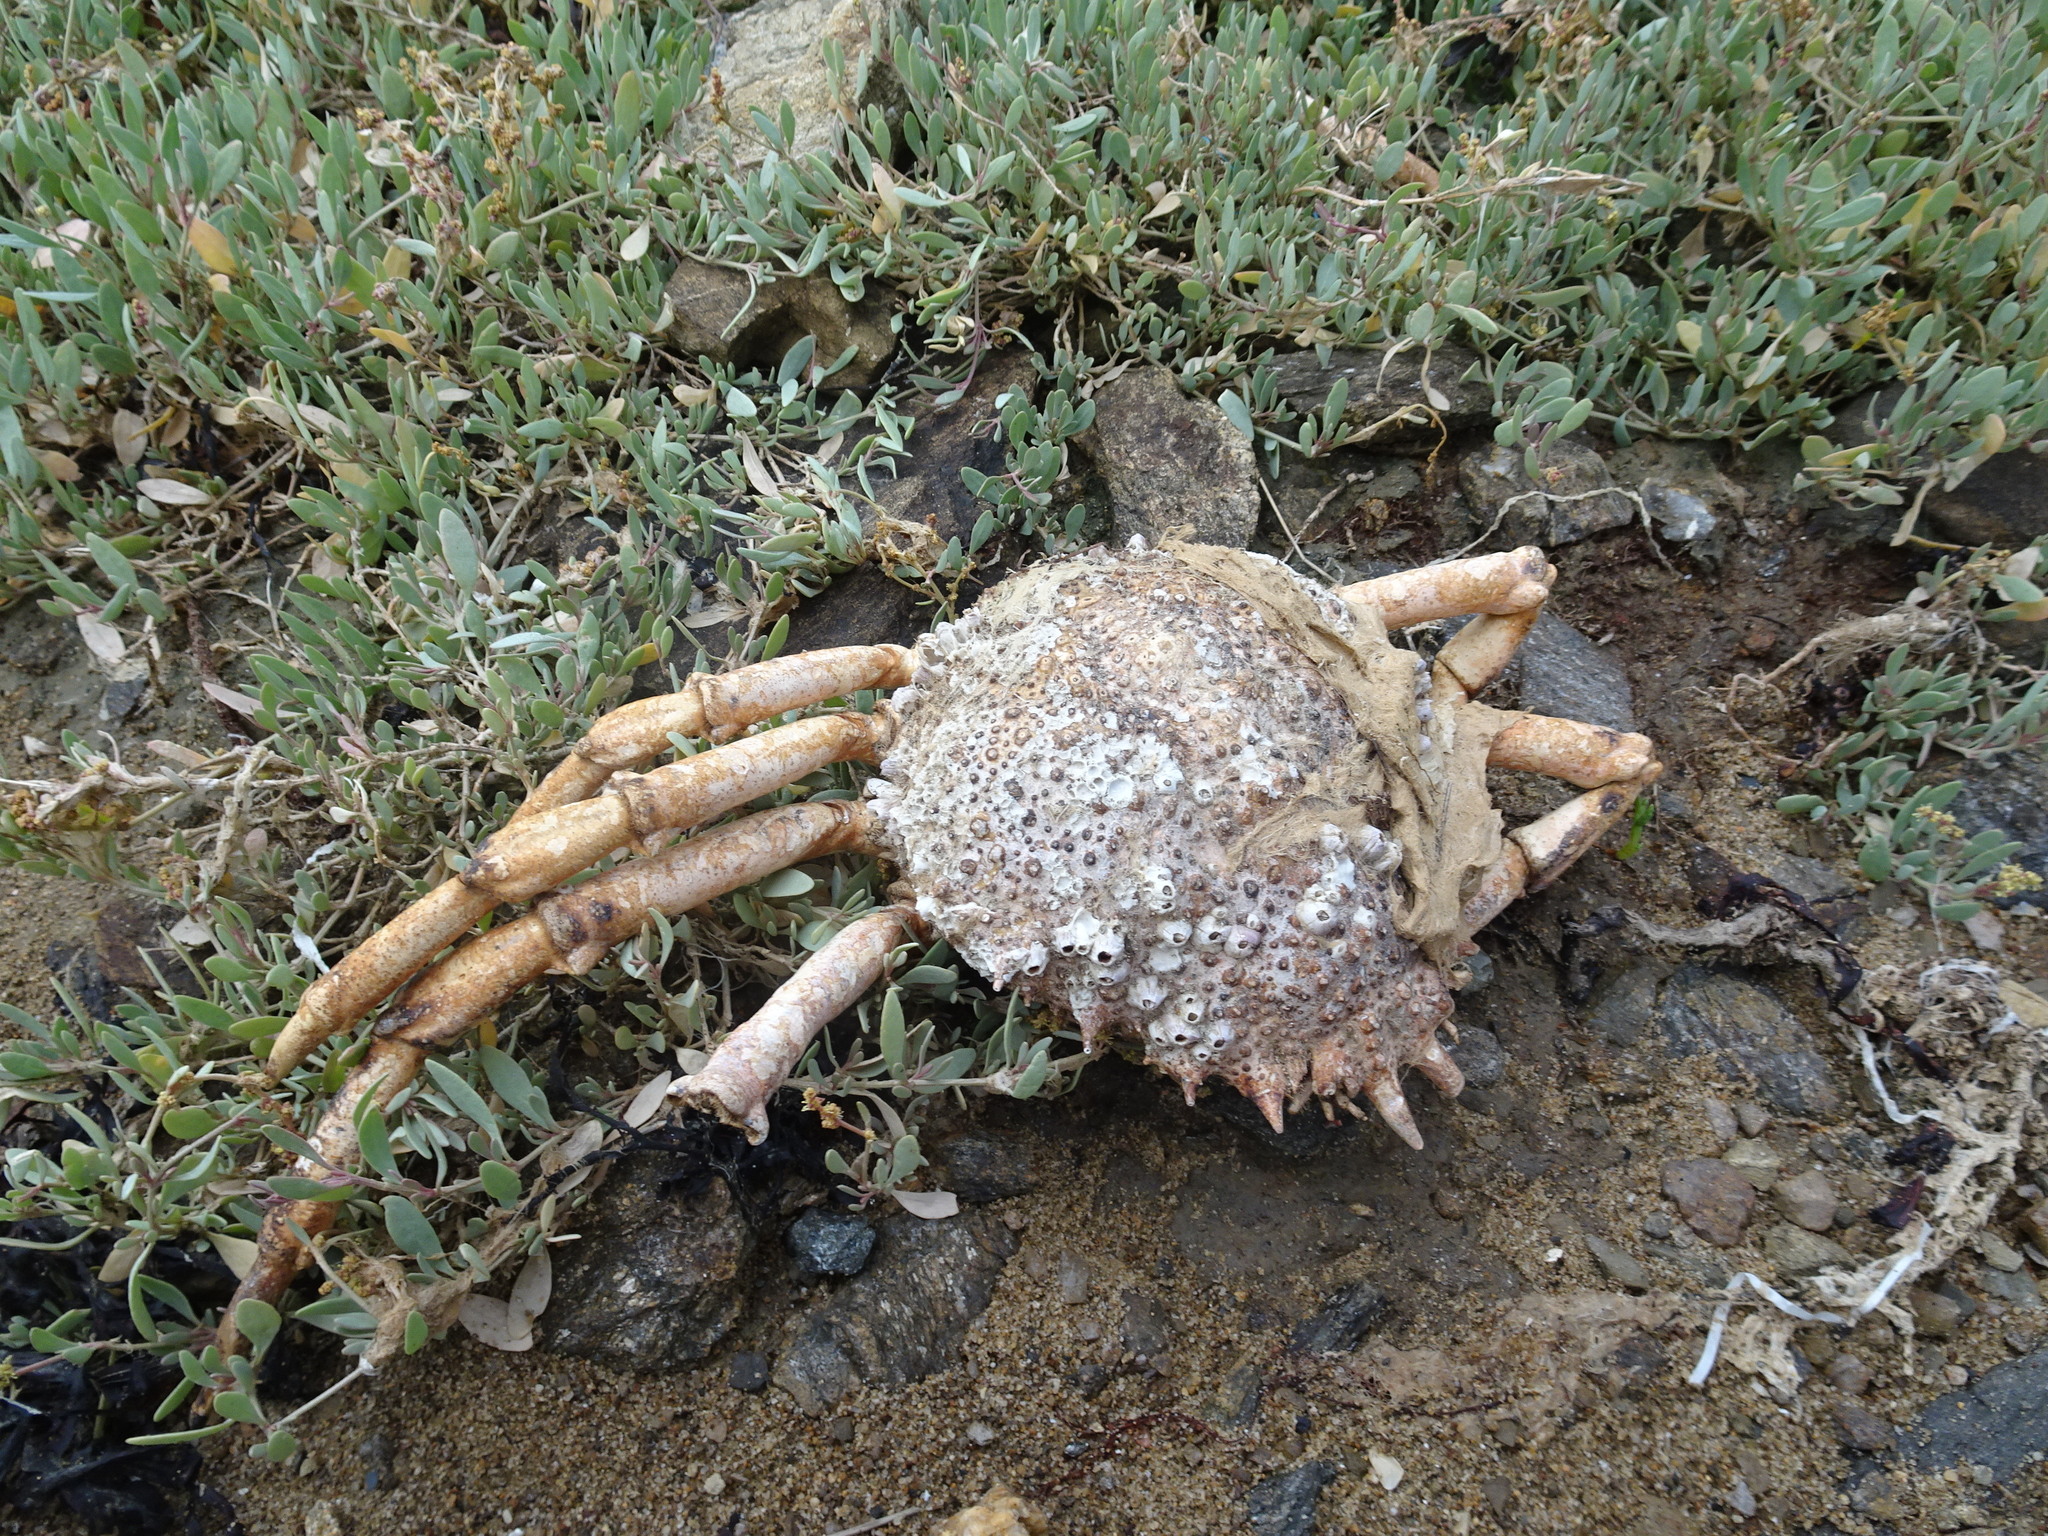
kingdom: Animalia
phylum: Arthropoda
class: Malacostraca
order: Decapoda
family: Majidae
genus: Maja
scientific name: Maja brachydactyla
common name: Common spider crab
